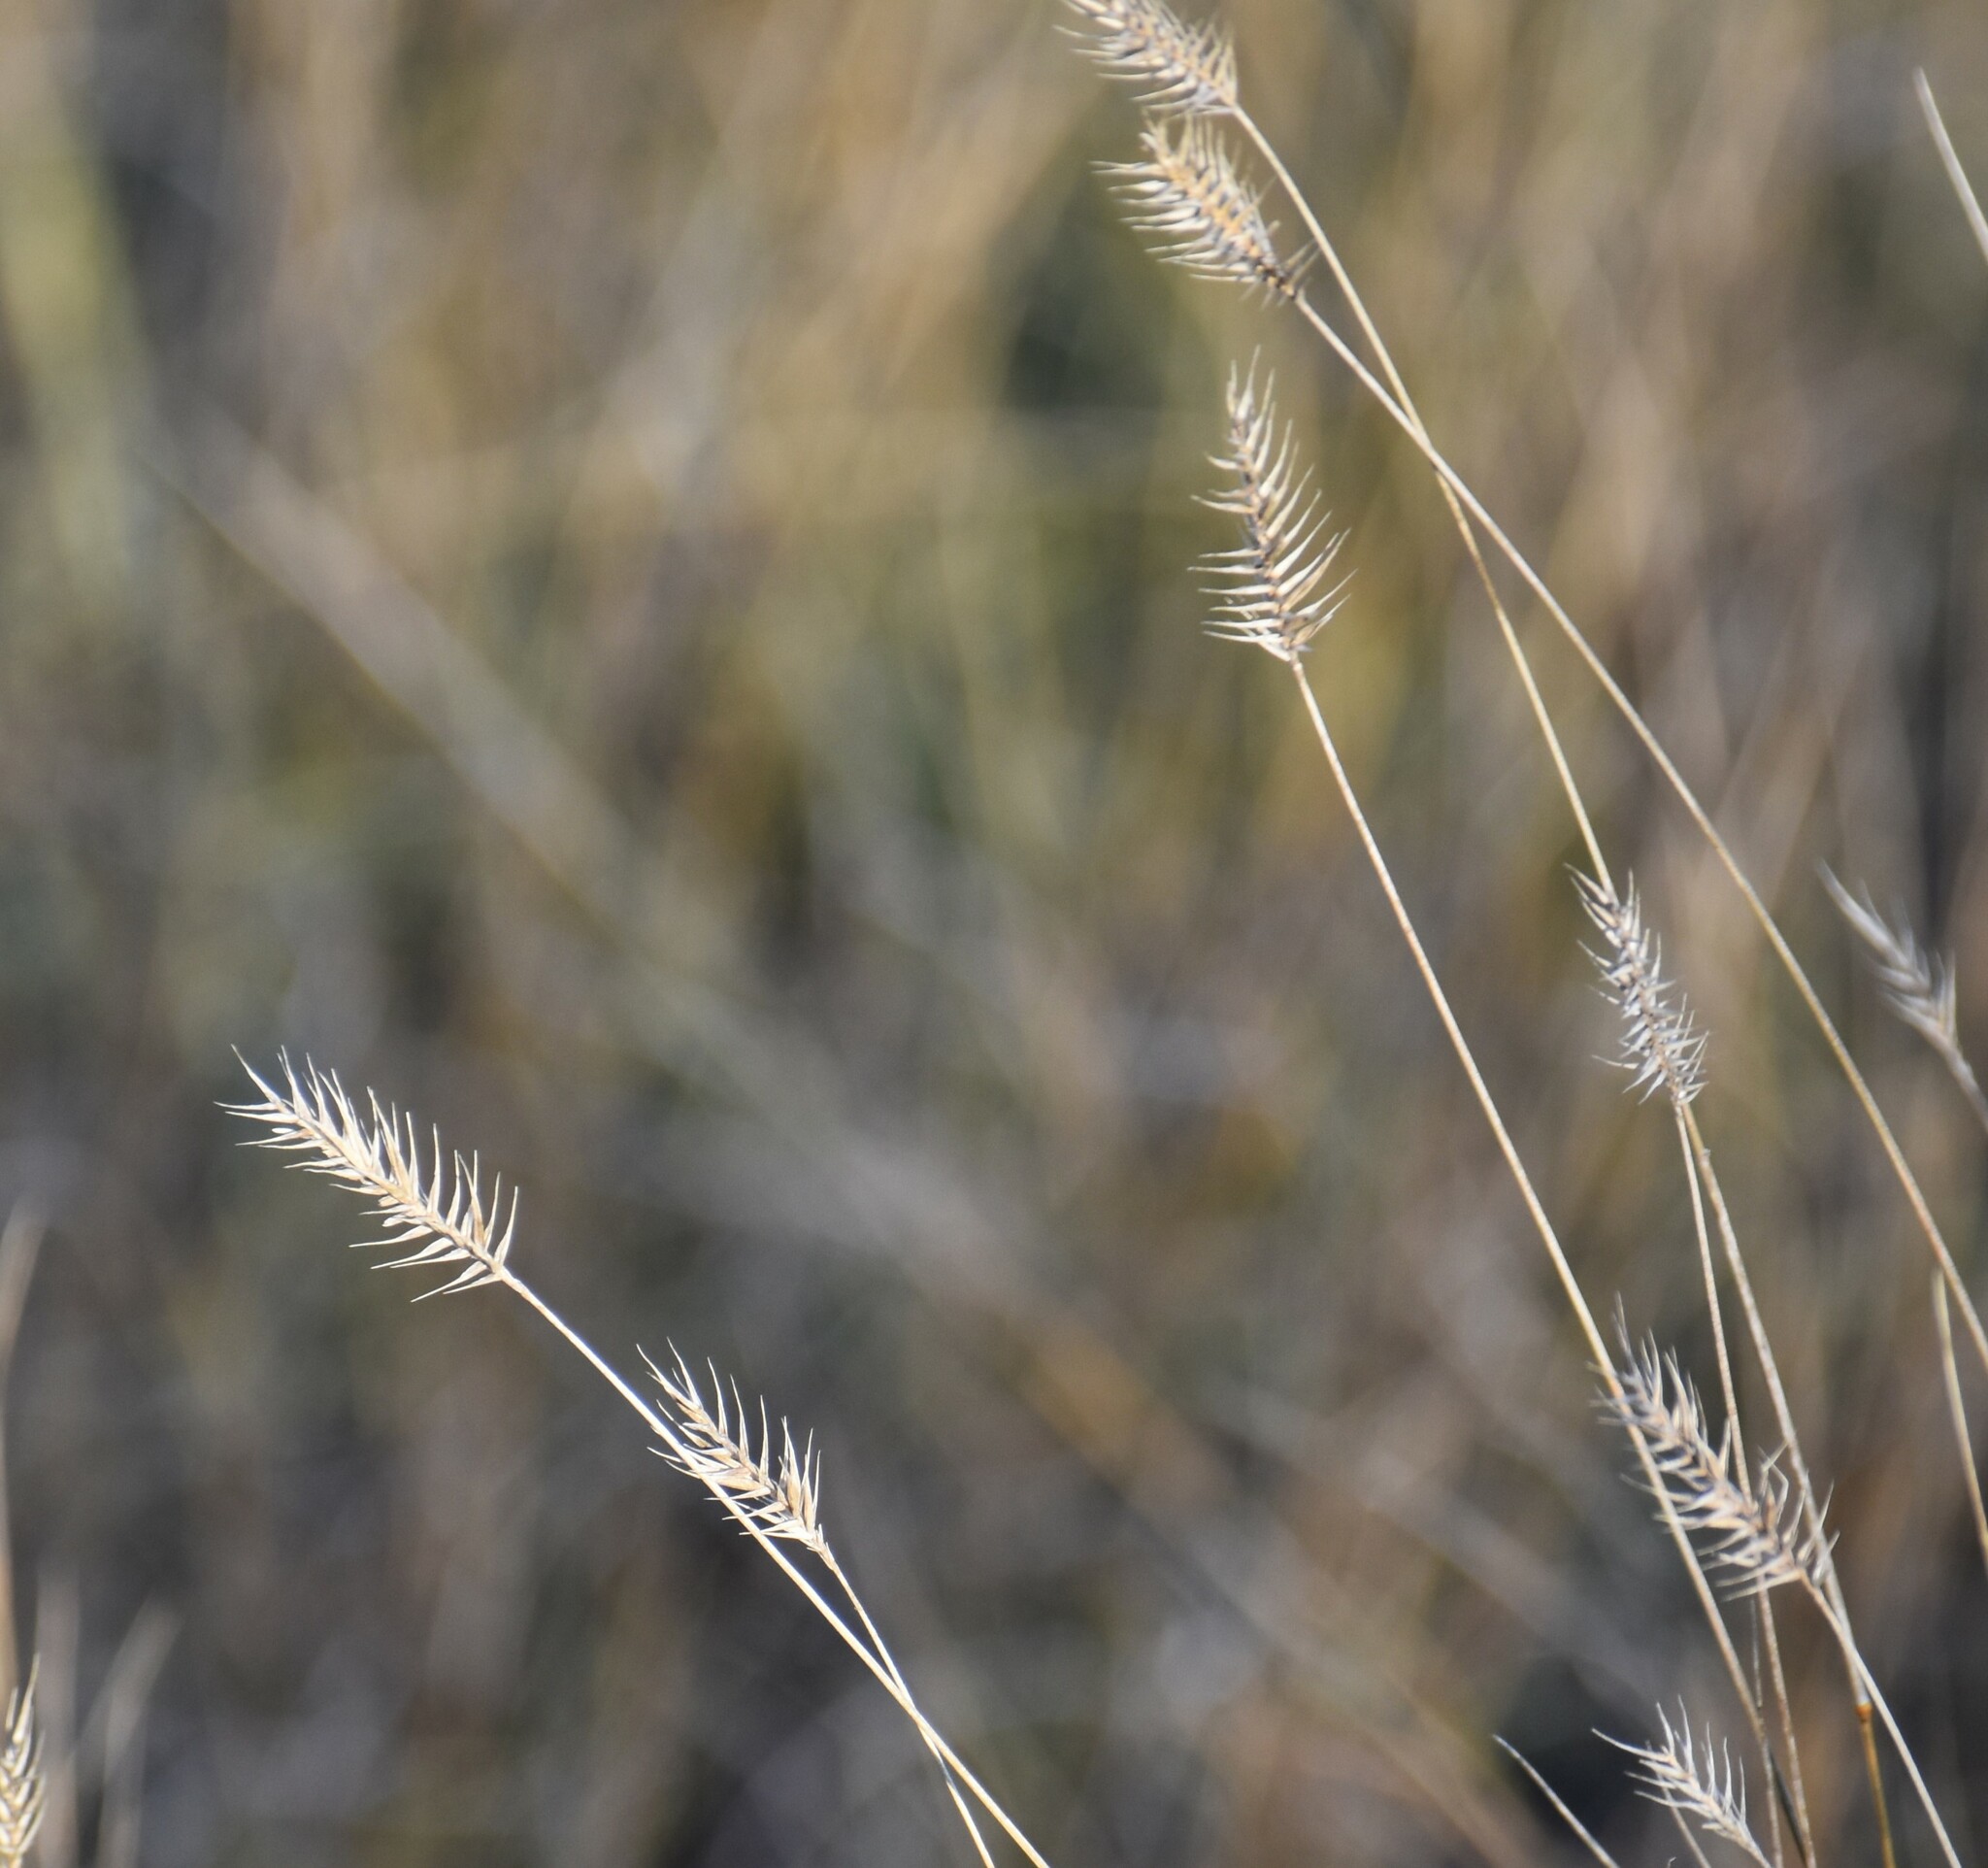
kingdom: Plantae
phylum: Tracheophyta
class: Liliopsida
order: Poales
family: Poaceae
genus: Agropyron
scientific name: Agropyron cristatum
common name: Crested wheatgrass
